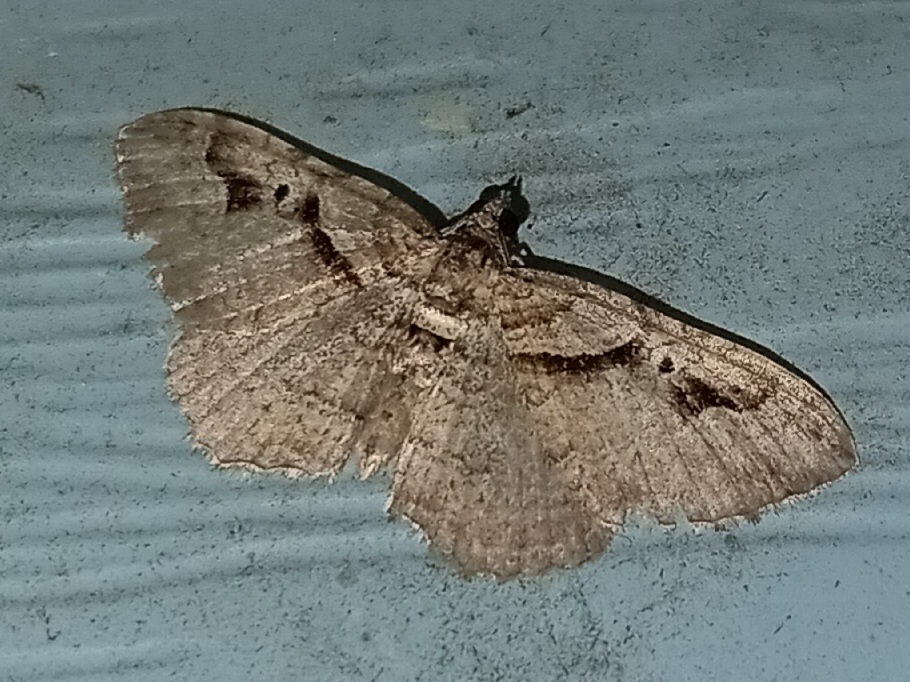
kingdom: Animalia
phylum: Arthropoda
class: Insecta
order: Lepidoptera
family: Geometridae
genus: Costaconvexa
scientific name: Costaconvexa centrostrigaria
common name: Bent-line carpet
